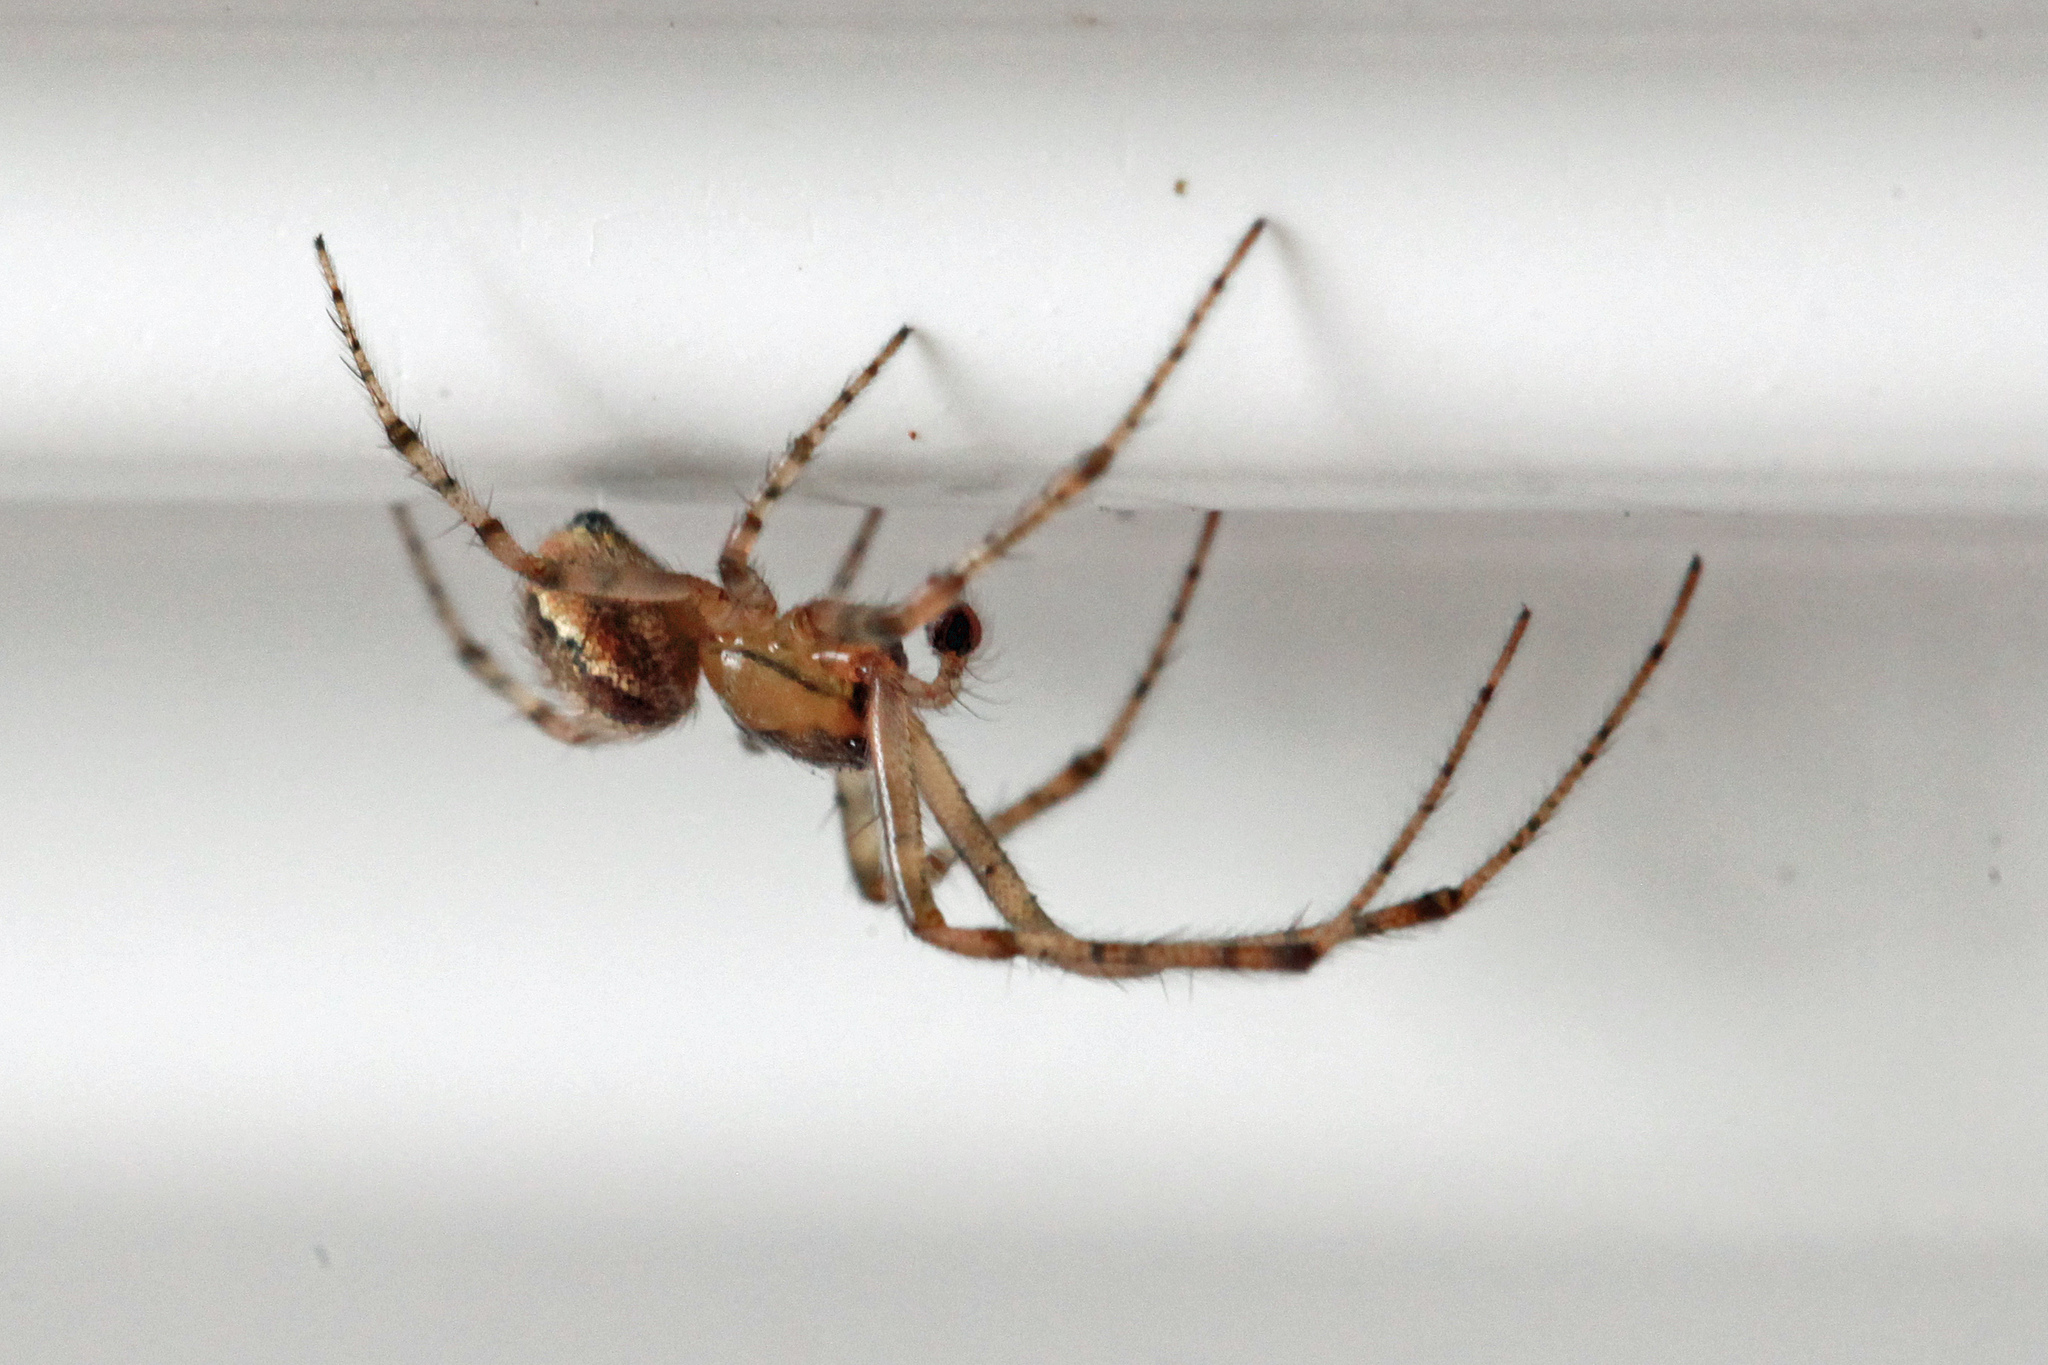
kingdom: Animalia
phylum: Arthropoda
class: Arachnida
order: Araneae
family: Araneidae
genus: Zygiella
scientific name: Zygiella x-notata
